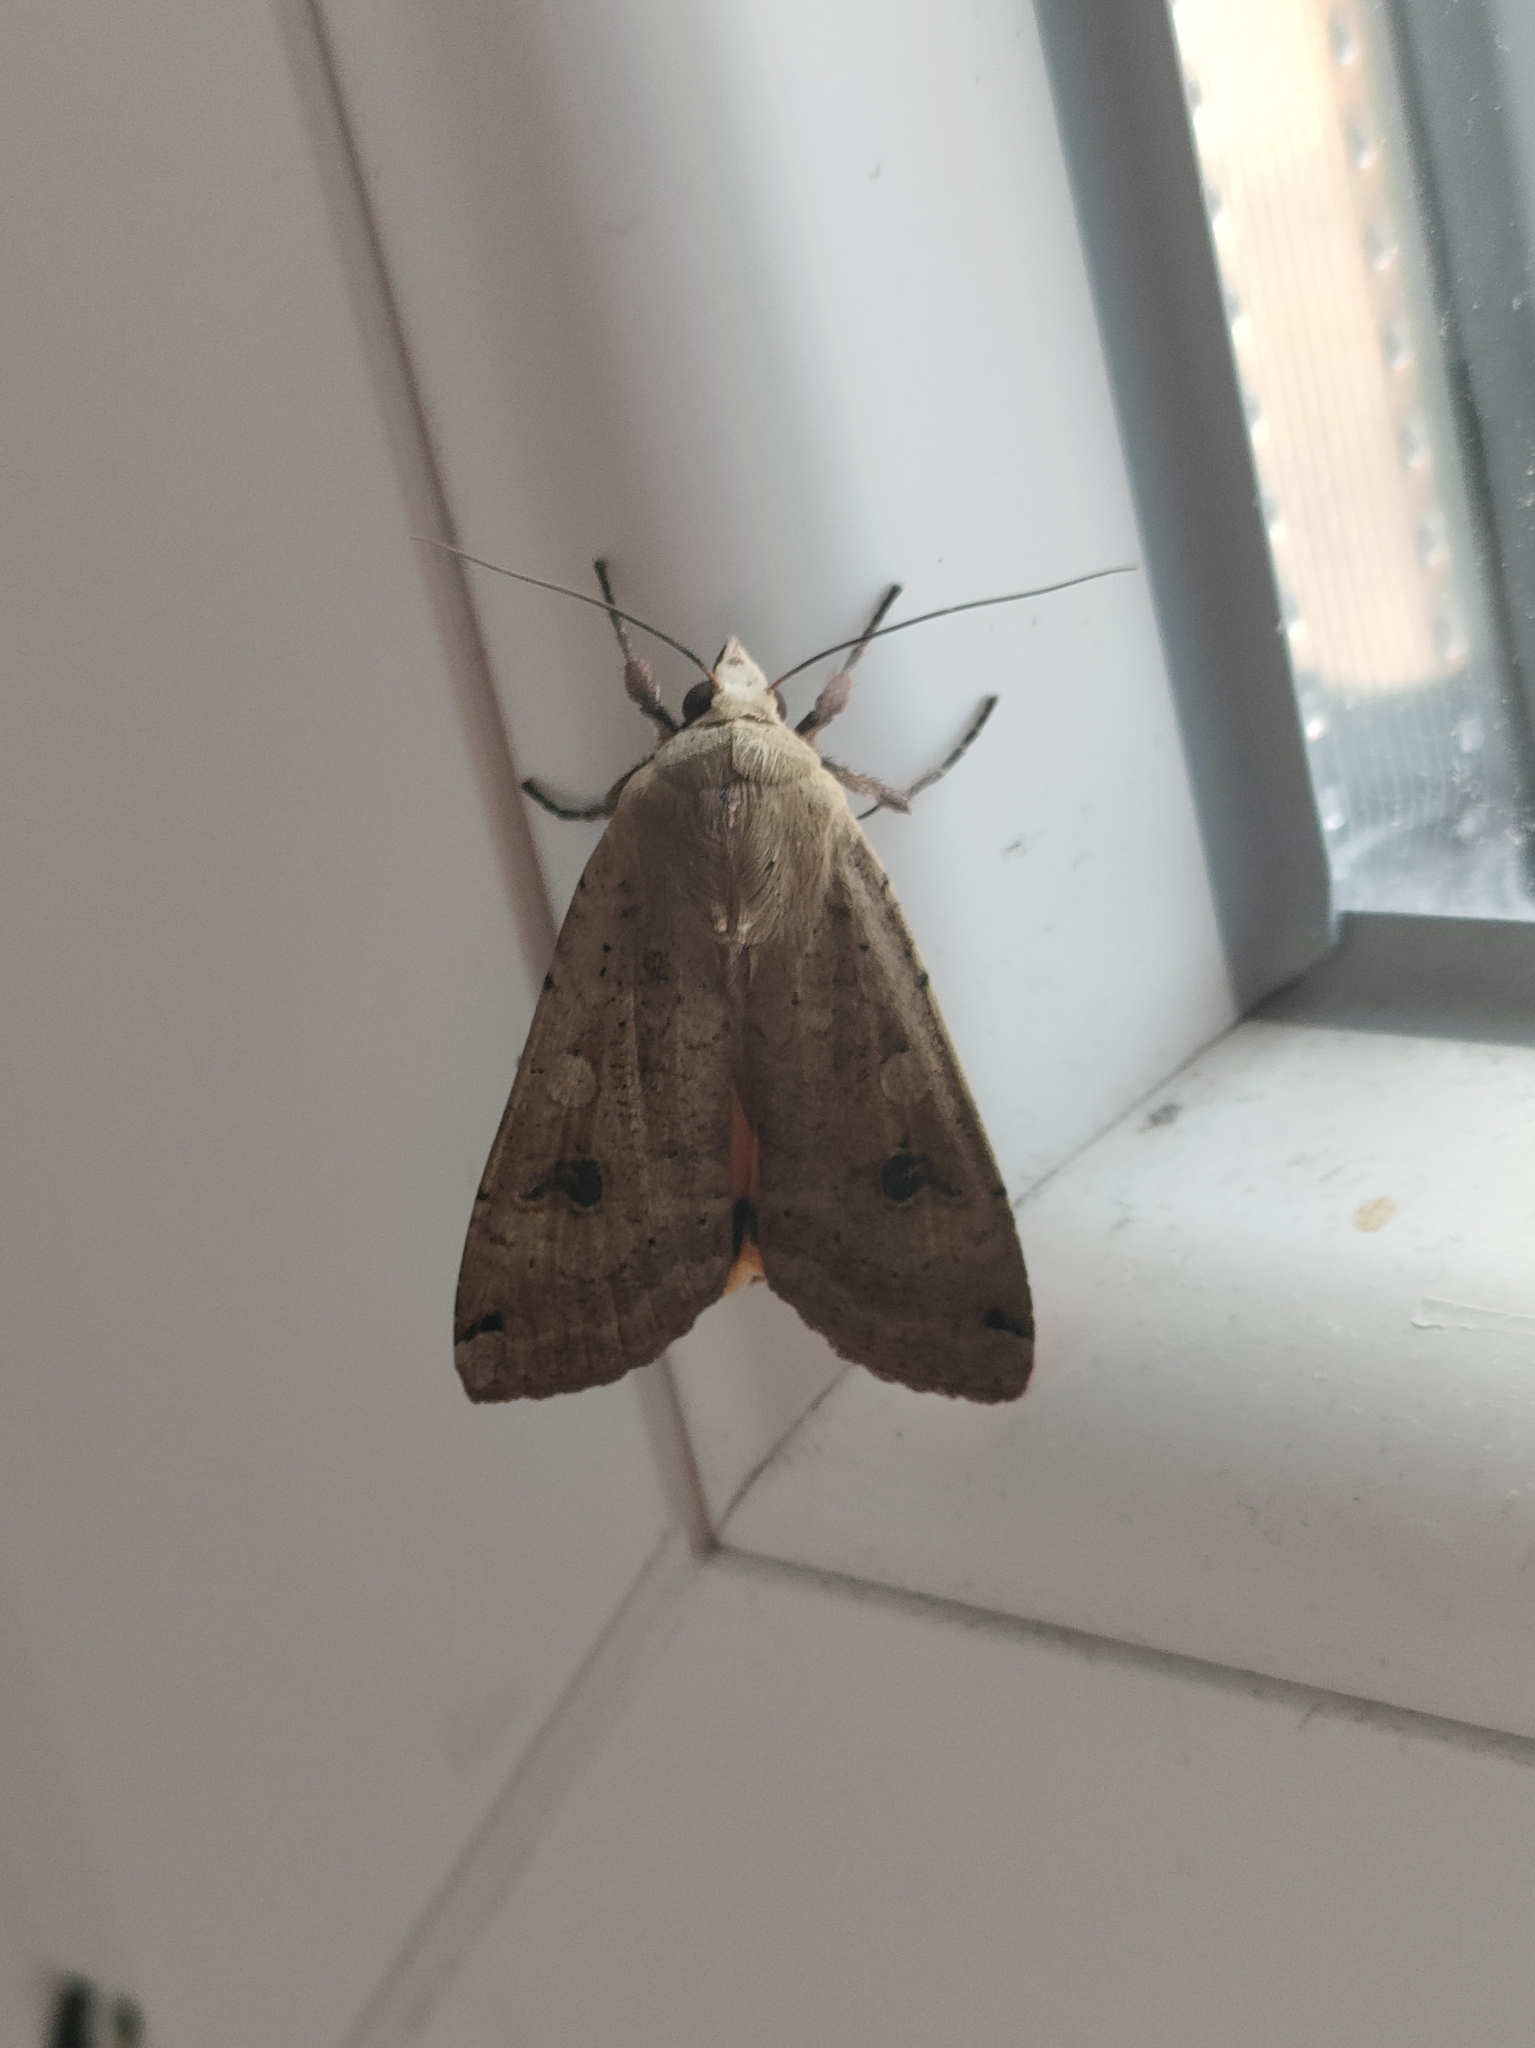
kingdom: Animalia
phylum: Arthropoda
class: Insecta
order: Lepidoptera
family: Noctuidae
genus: Noctua
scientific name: Noctua pronuba
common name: Large yellow underwing
